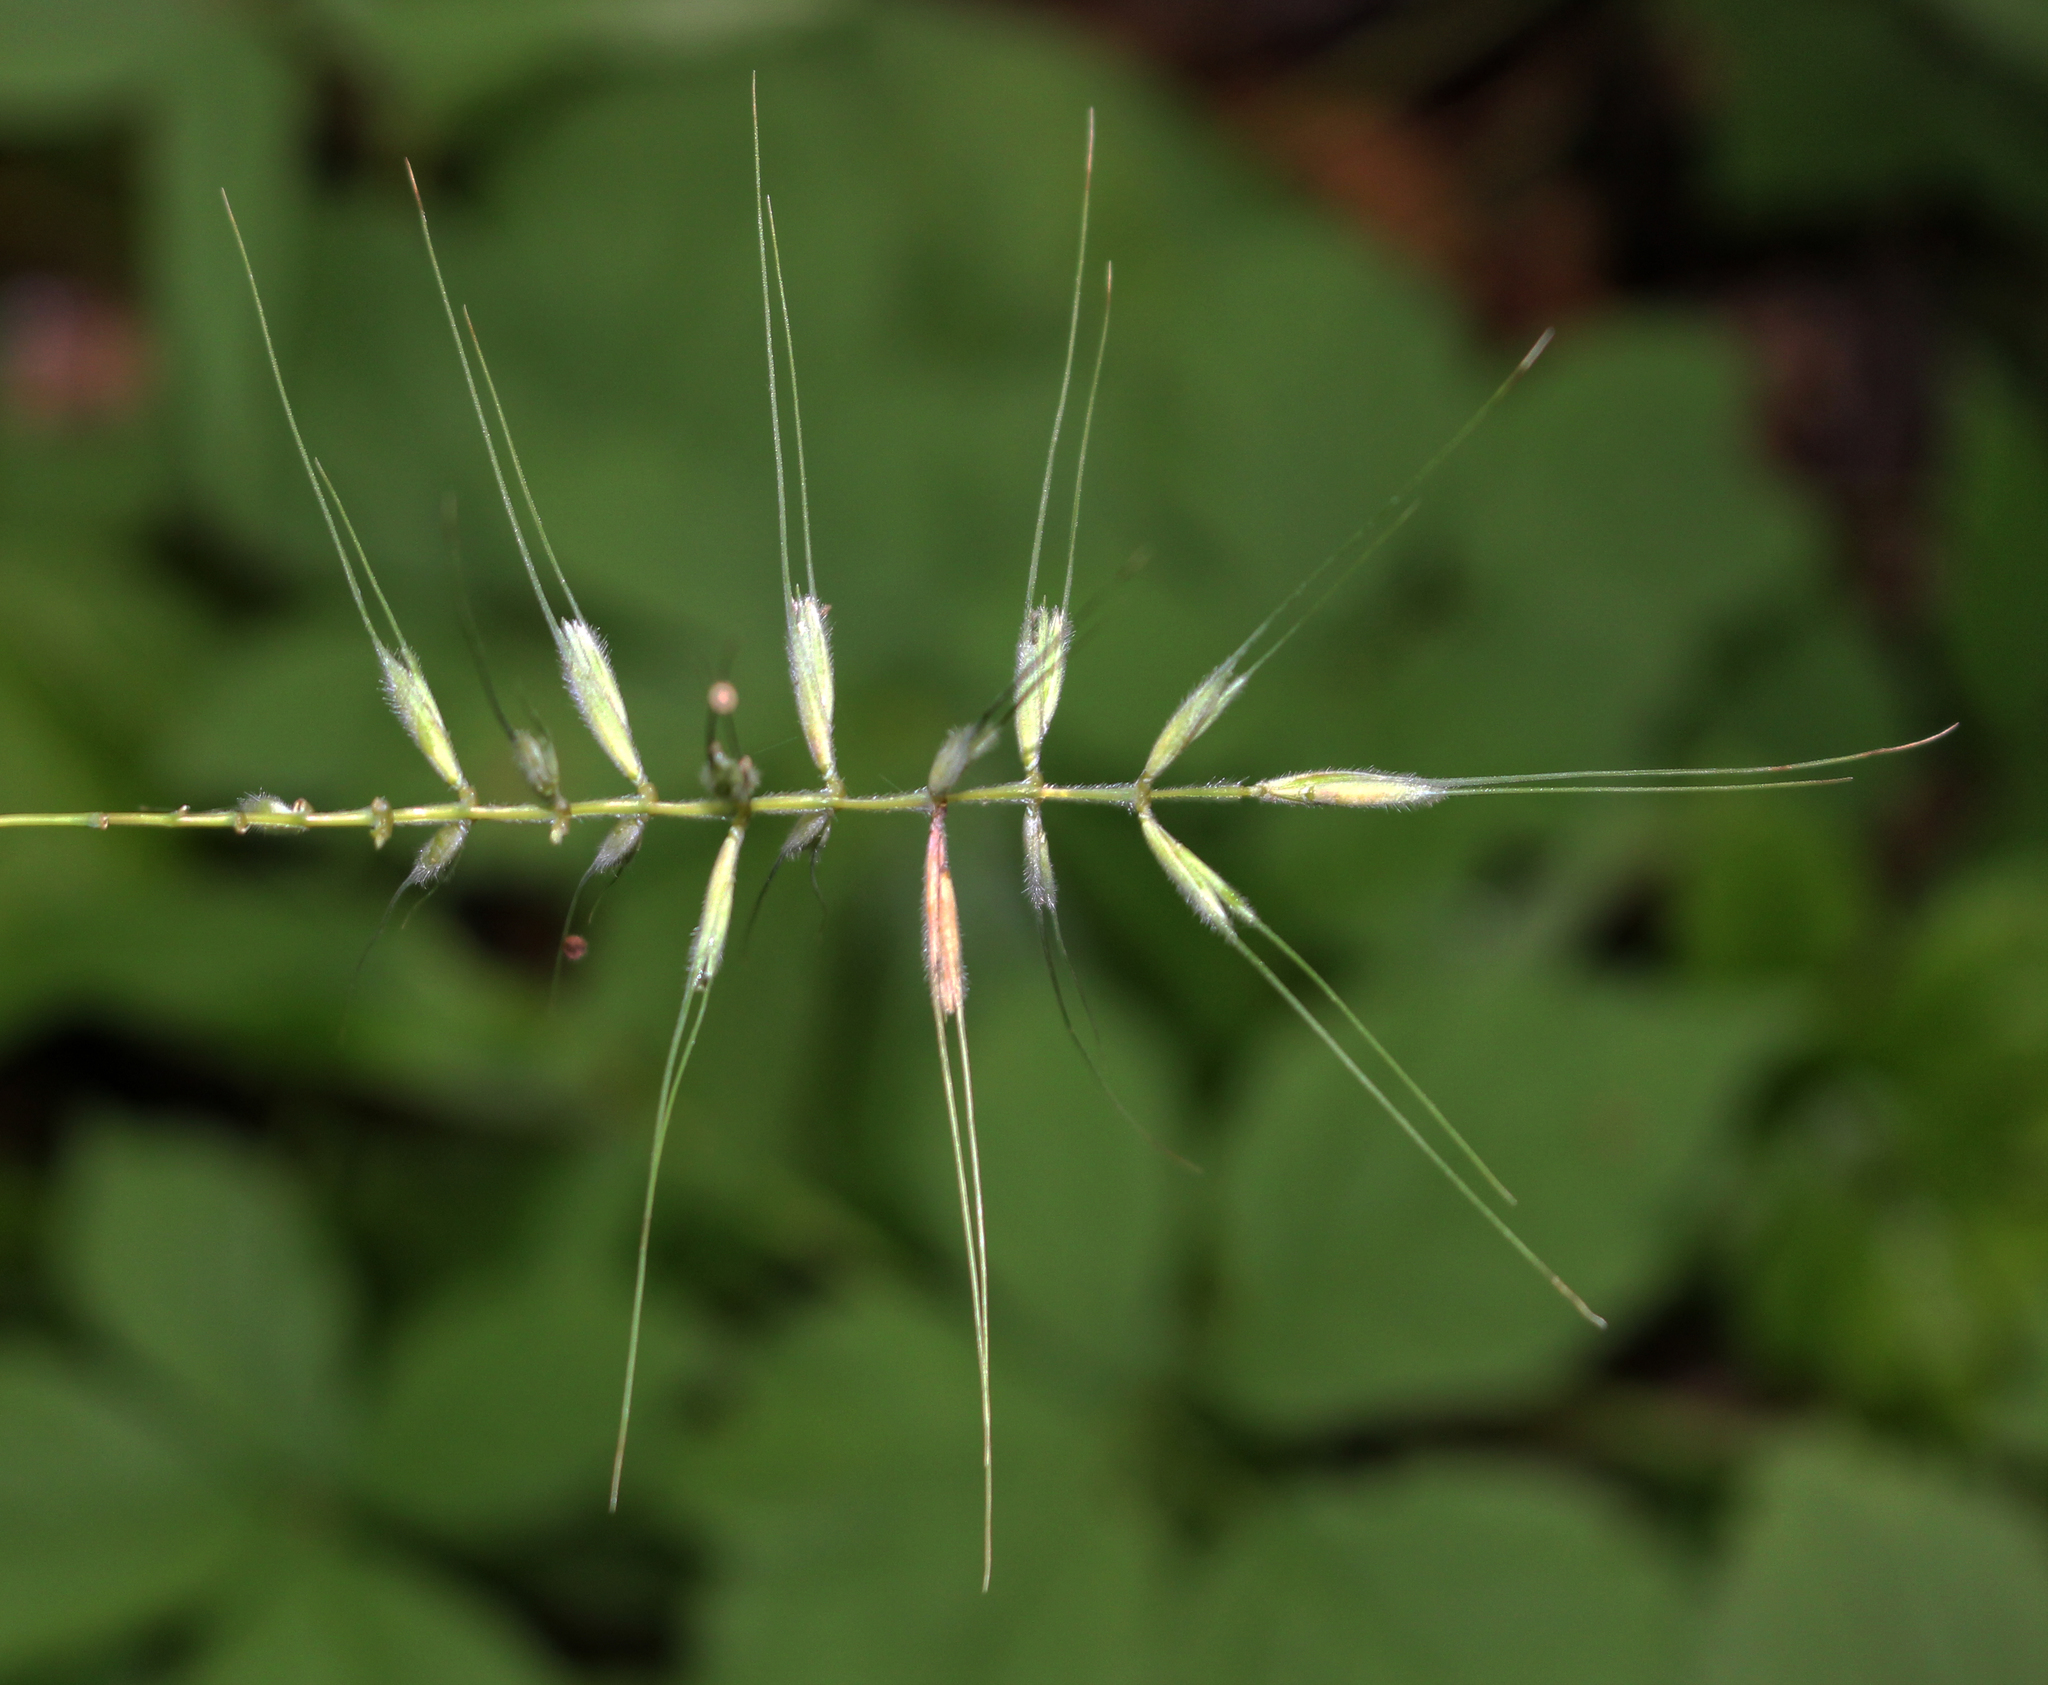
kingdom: Plantae
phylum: Tracheophyta
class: Liliopsida
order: Poales
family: Poaceae
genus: Elymus
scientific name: Elymus hystrix
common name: Bottlebrush grass
